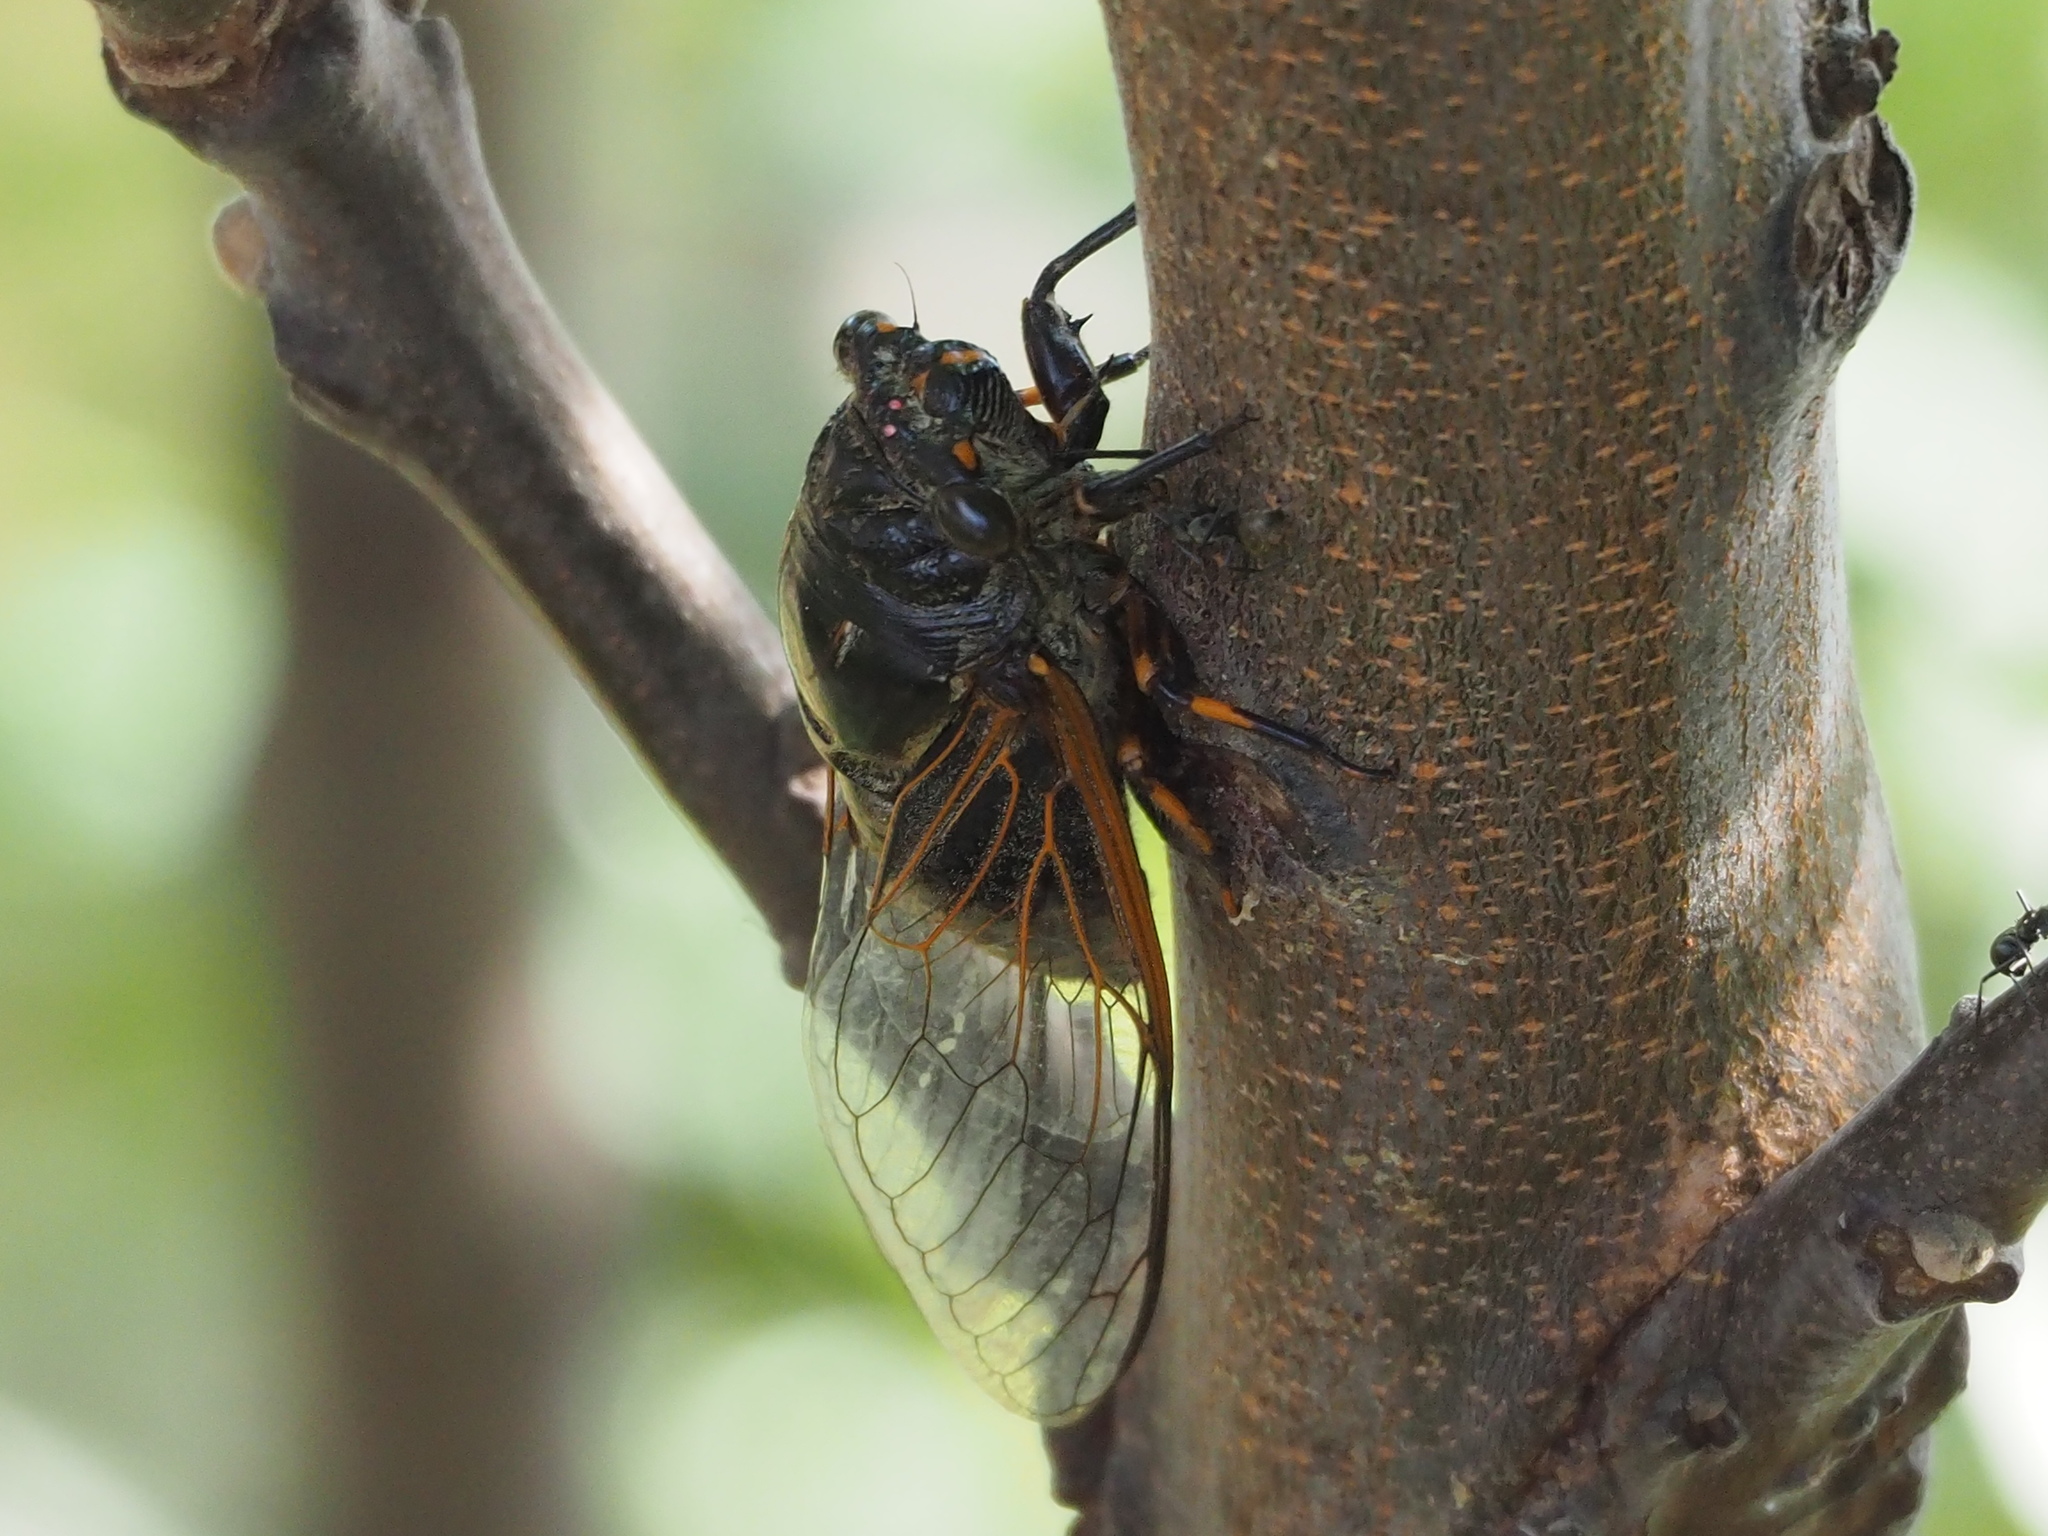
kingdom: Animalia
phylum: Arthropoda
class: Insecta
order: Hemiptera
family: Cicadidae
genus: Cryptotympana
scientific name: Cryptotympana atrata
